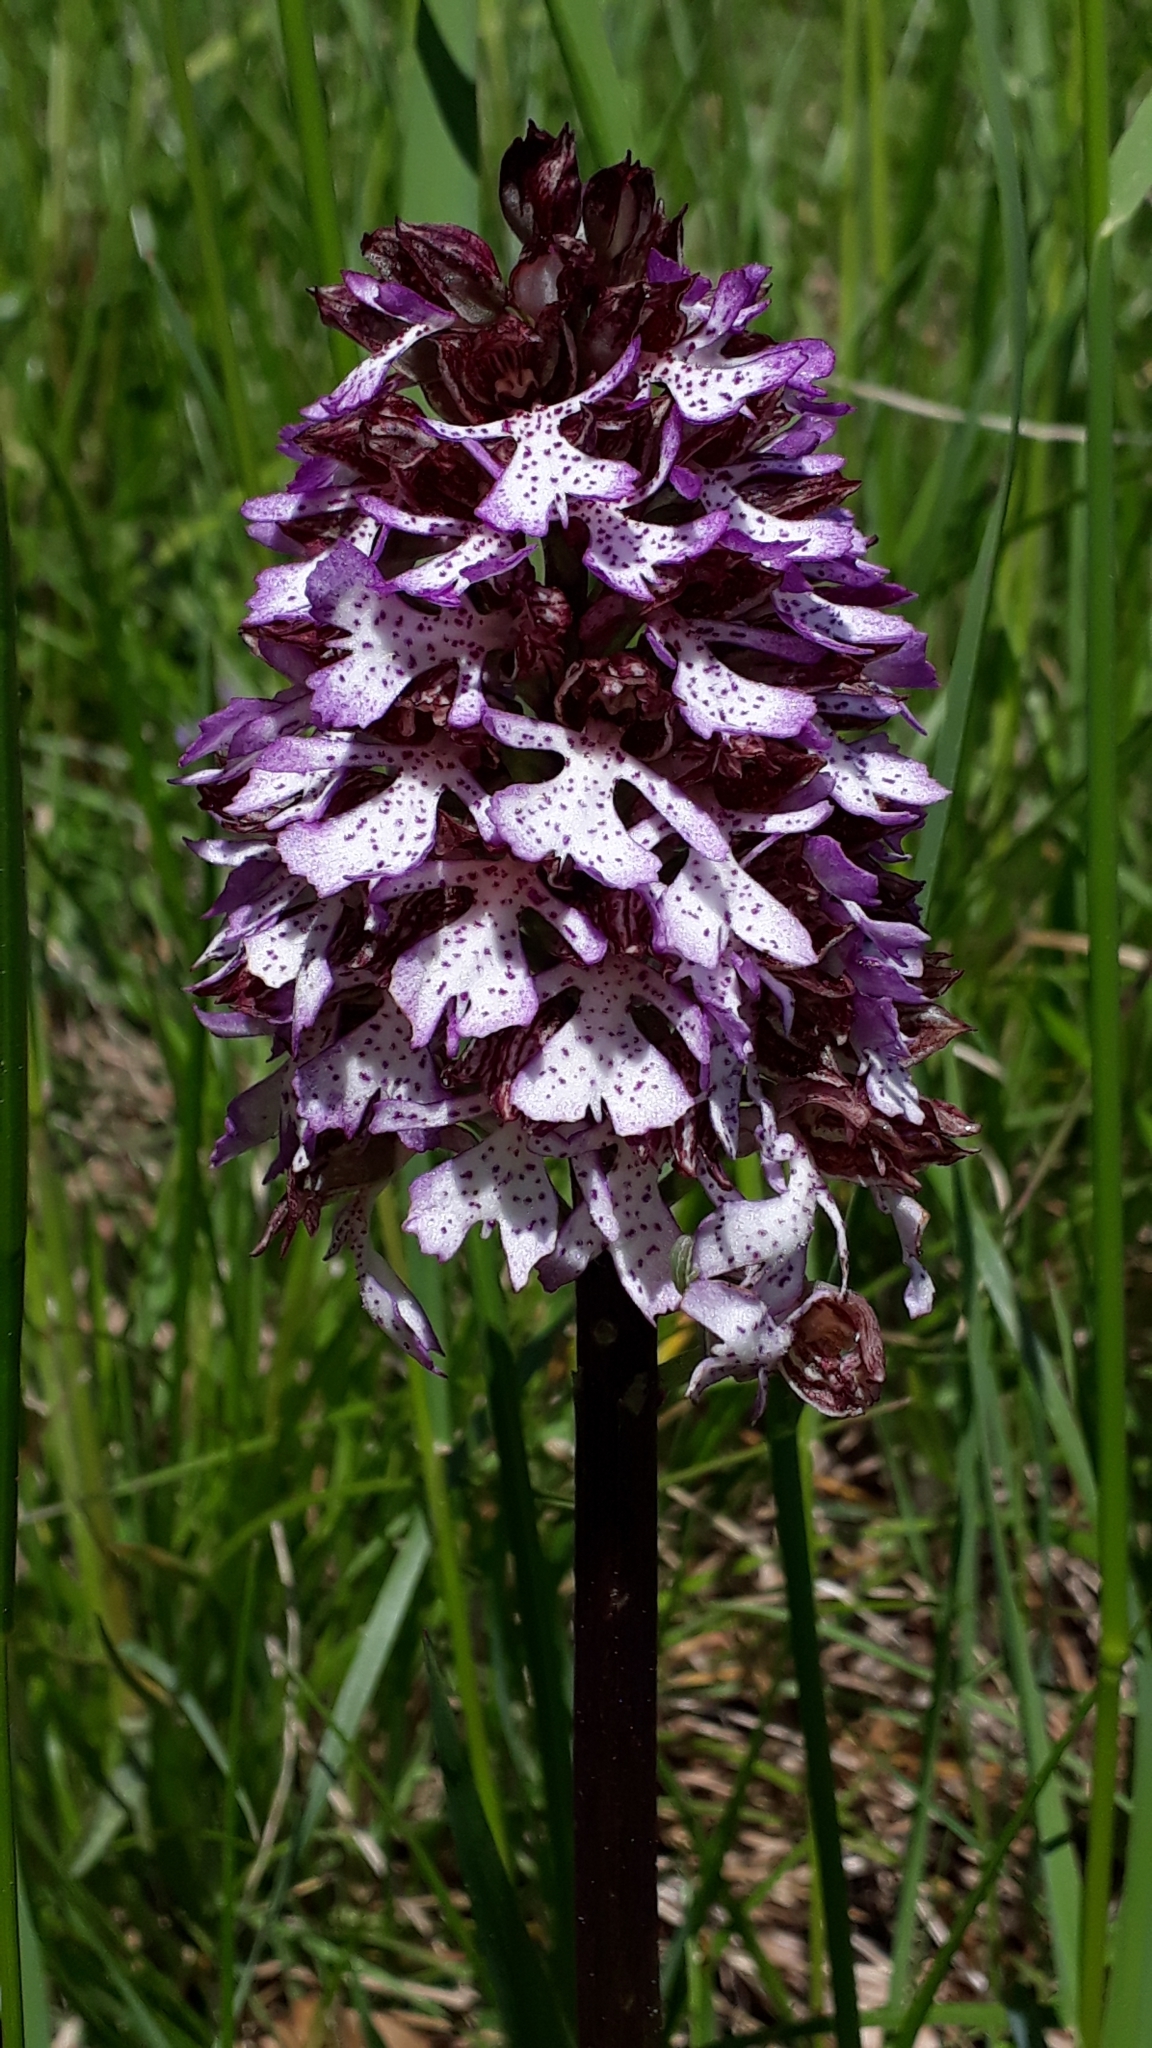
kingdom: Plantae
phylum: Tracheophyta
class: Liliopsida
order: Asparagales
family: Orchidaceae
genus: Orchis
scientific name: Orchis purpurea
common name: Lady orchid
